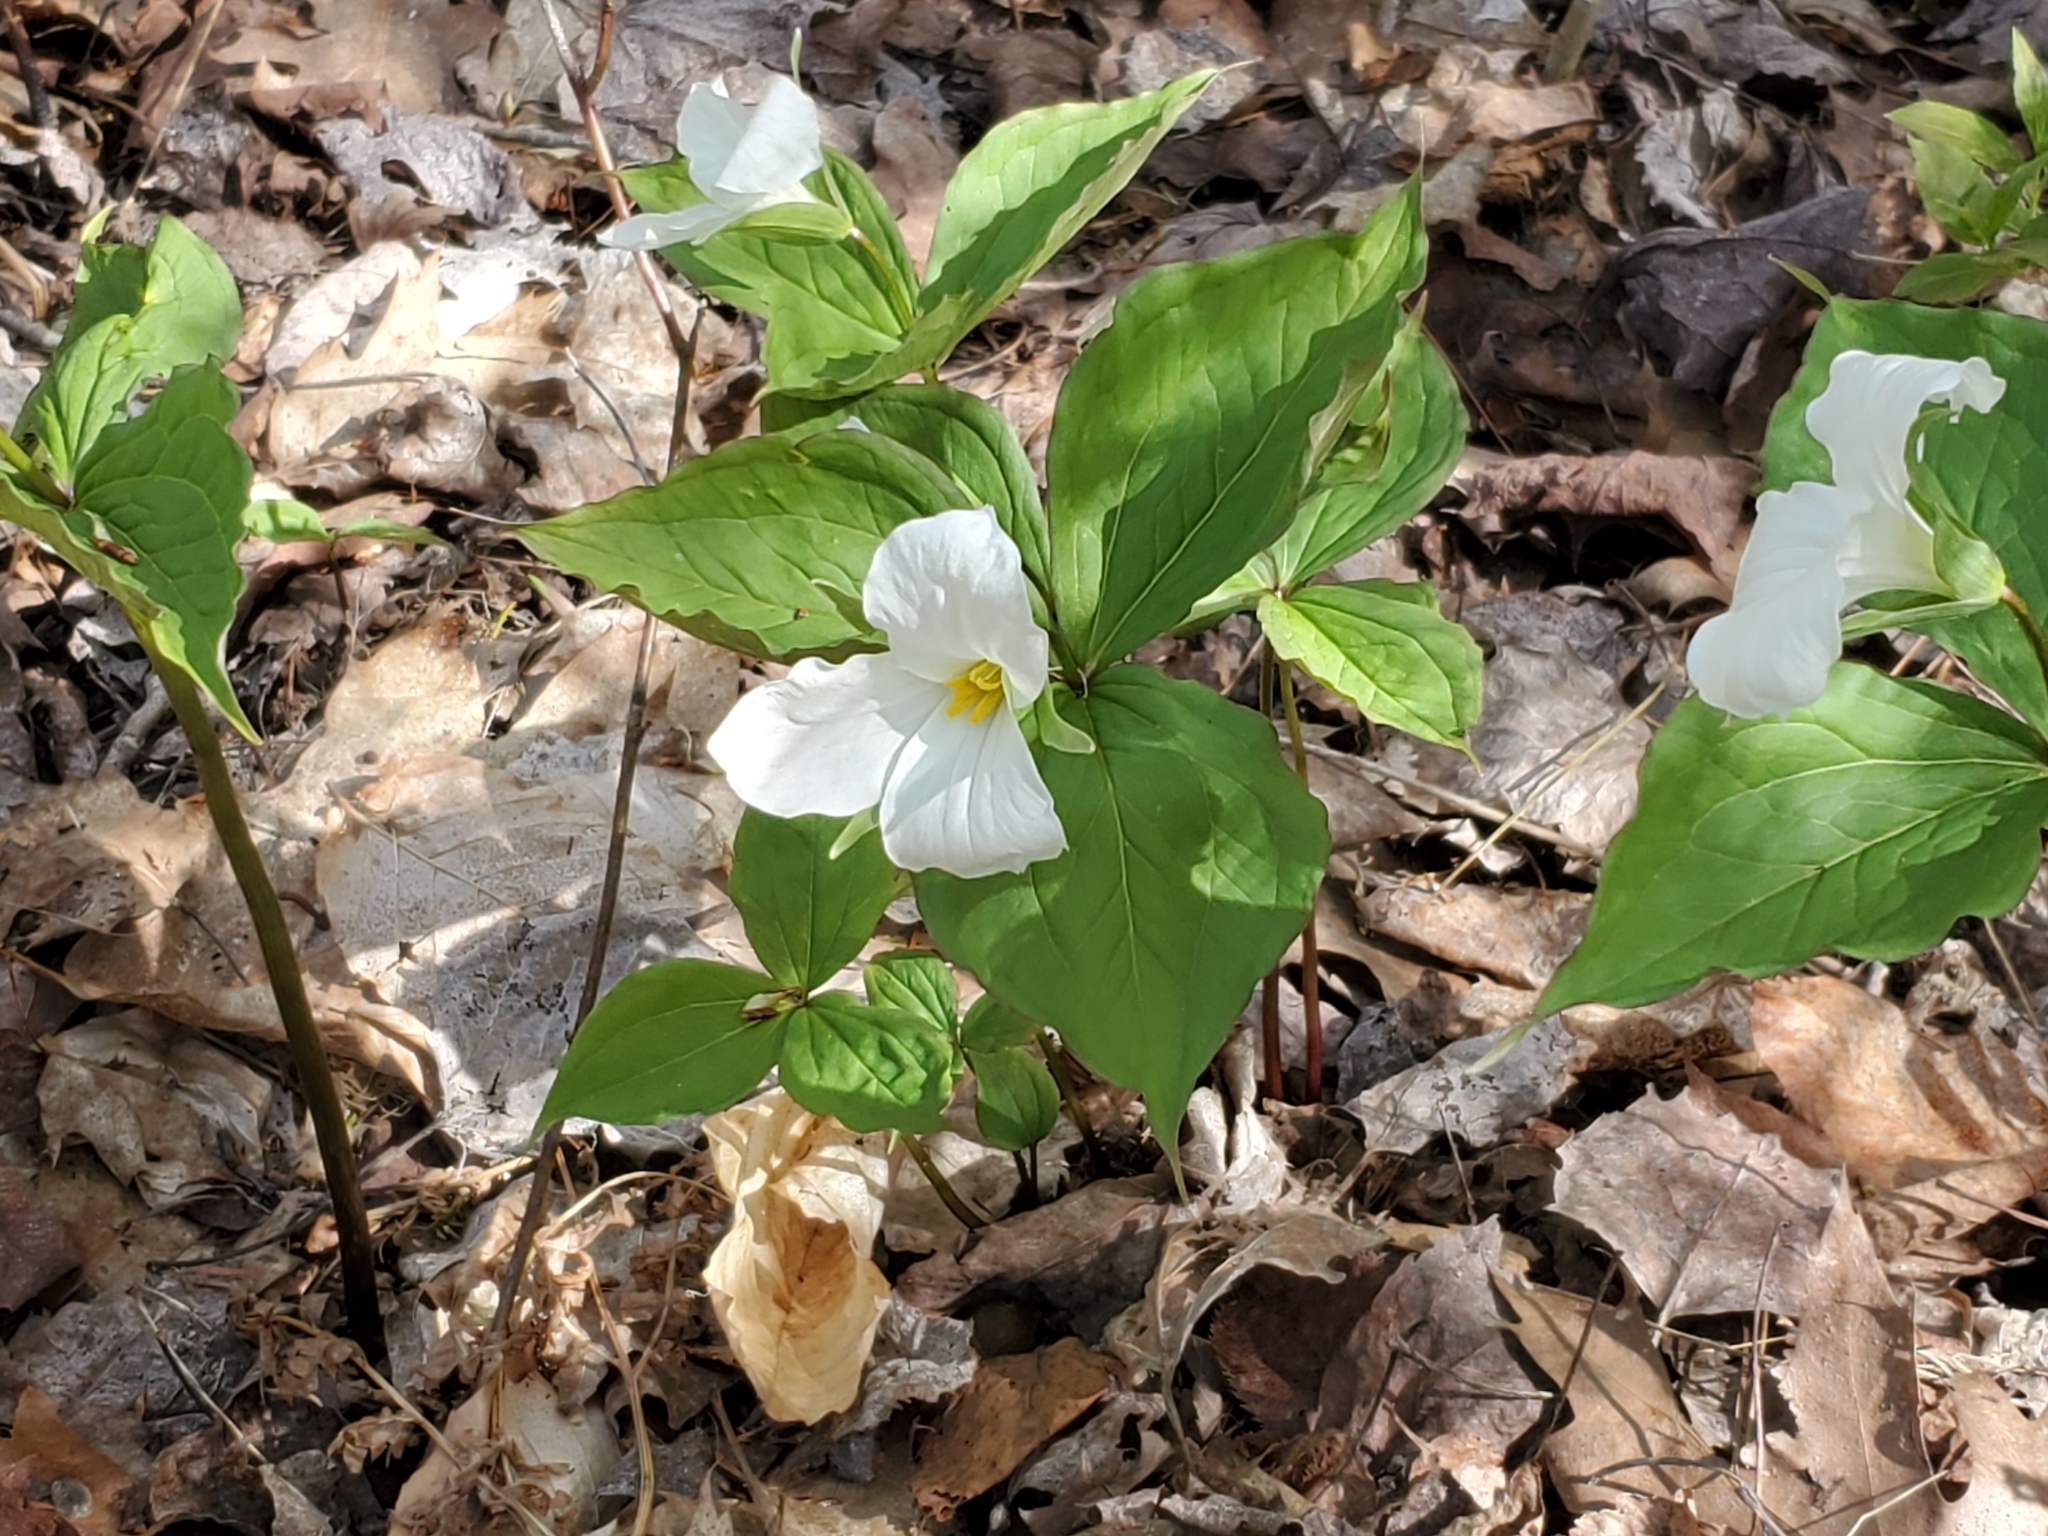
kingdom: Plantae
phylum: Tracheophyta
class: Liliopsida
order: Liliales
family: Melanthiaceae
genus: Trillium
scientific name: Trillium grandiflorum
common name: Great white trillium
